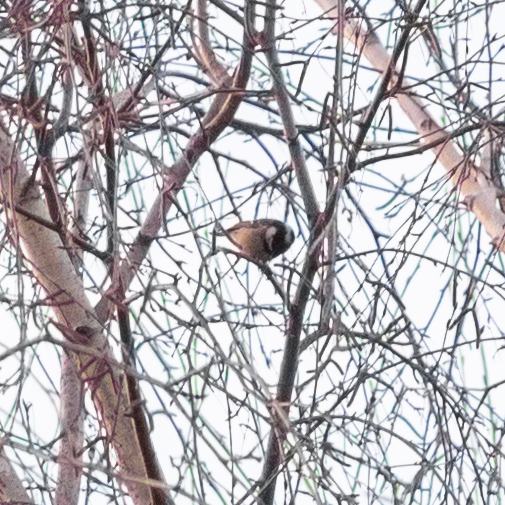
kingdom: Animalia
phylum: Chordata
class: Aves
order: Passeriformes
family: Paridae
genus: Periparus
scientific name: Periparus ater
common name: Coal tit
